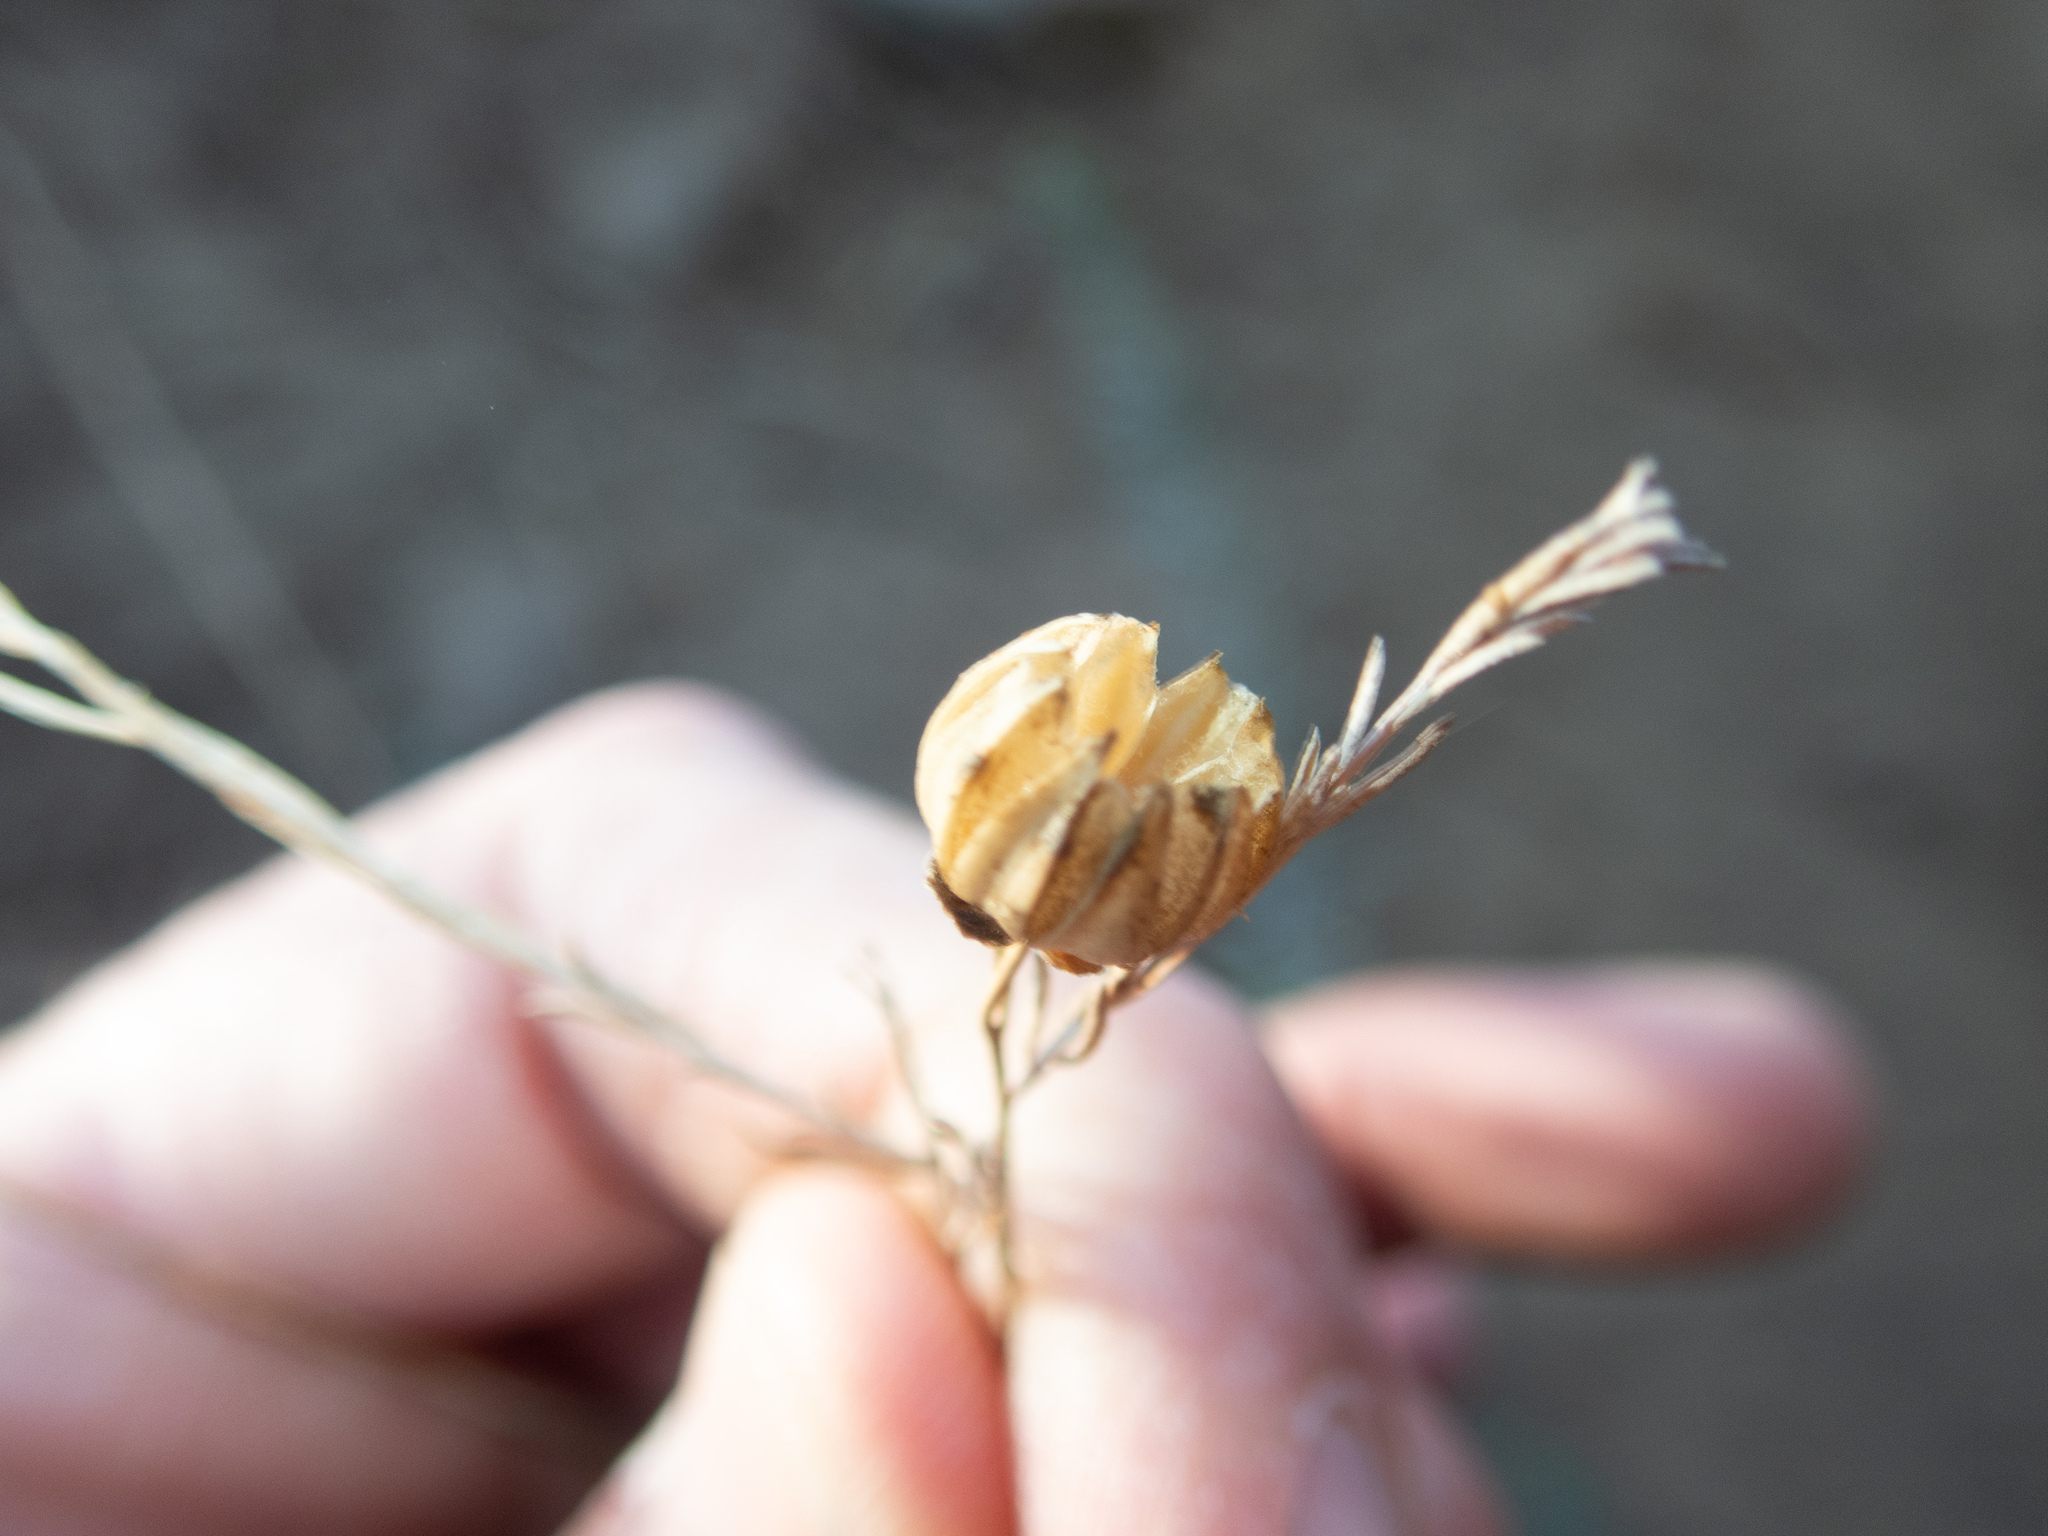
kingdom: Plantae
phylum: Tracheophyta
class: Magnoliopsida
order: Malpighiales
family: Linaceae
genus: Linum
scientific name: Linum lewisii
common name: Prairie flax
